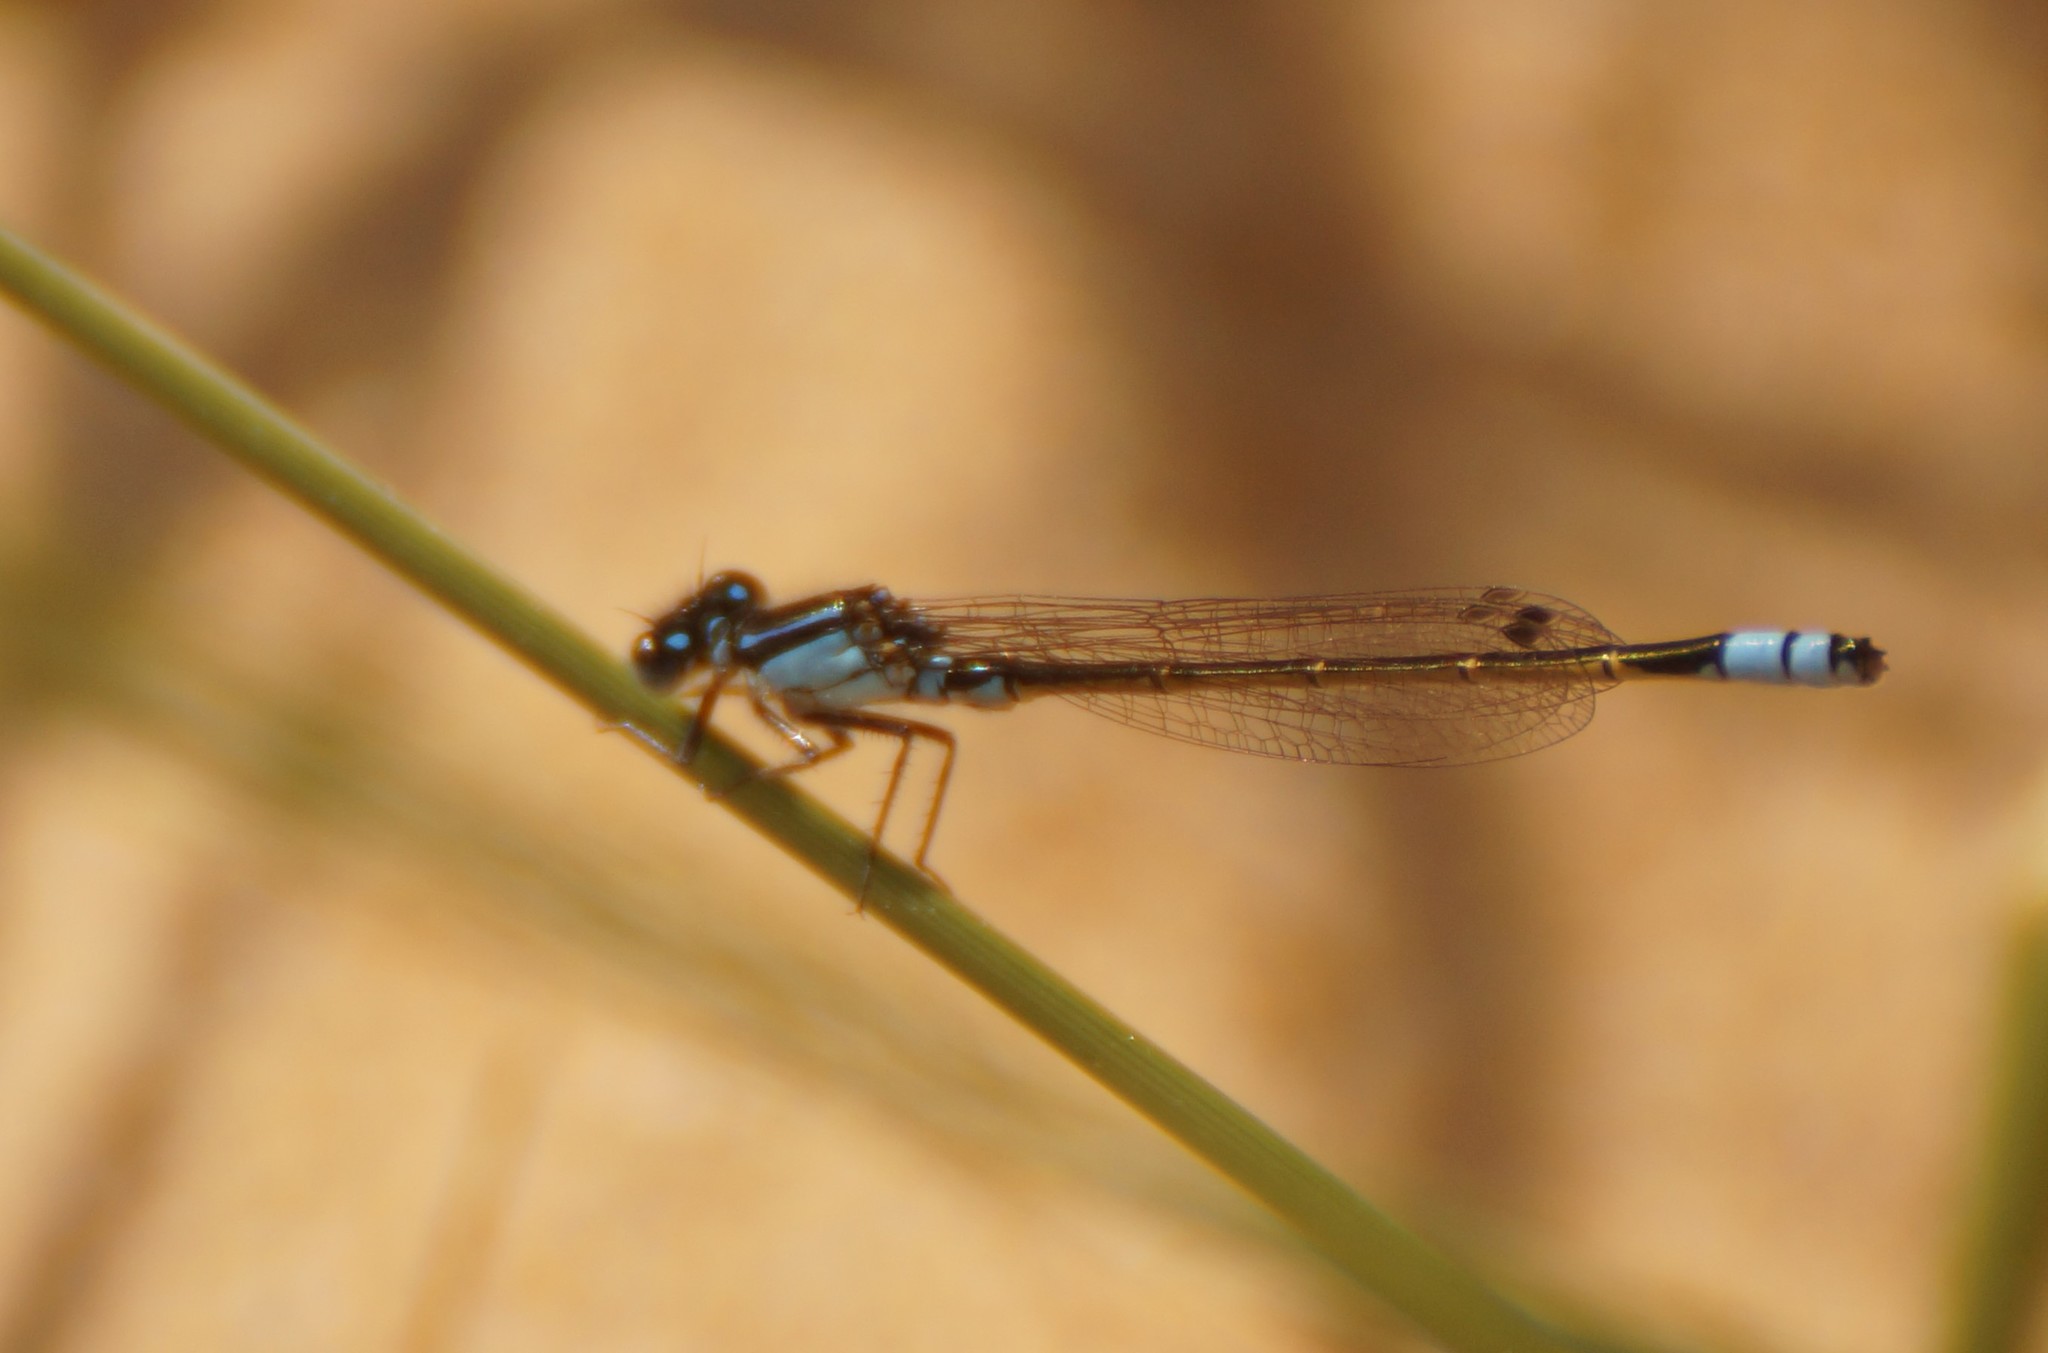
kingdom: Animalia
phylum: Arthropoda
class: Insecta
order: Odonata
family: Coenagrionidae
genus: Ischnura
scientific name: Ischnura heterosticta
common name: Common bluetail
